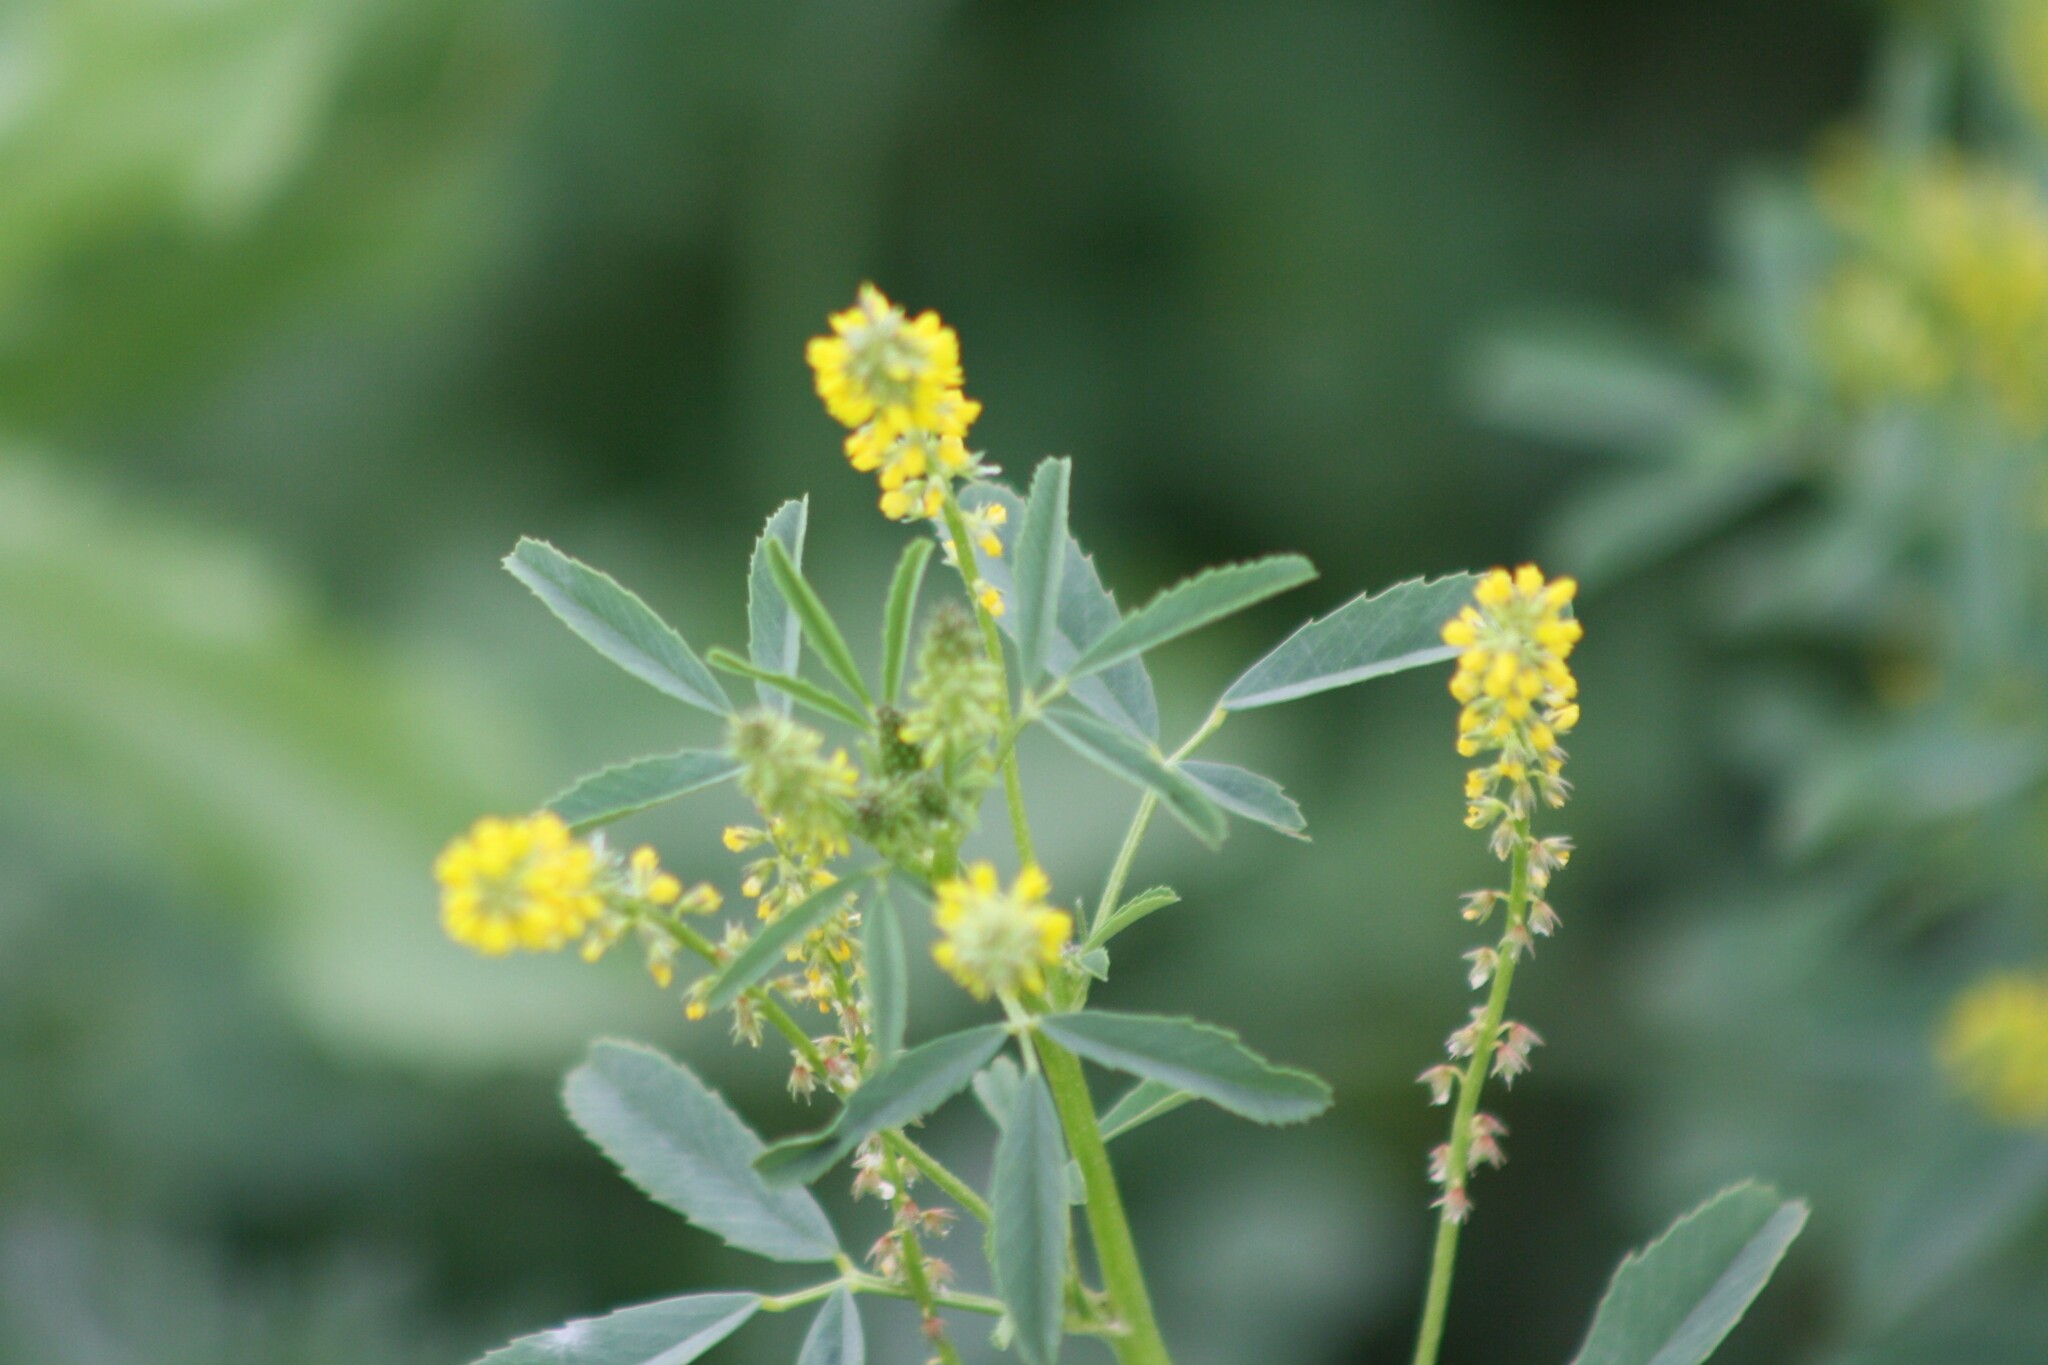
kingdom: Plantae
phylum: Tracheophyta
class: Magnoliopsida
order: Fabales
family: Fabaceae
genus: Melilotus
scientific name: Melilotus indicus
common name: Small melilot
